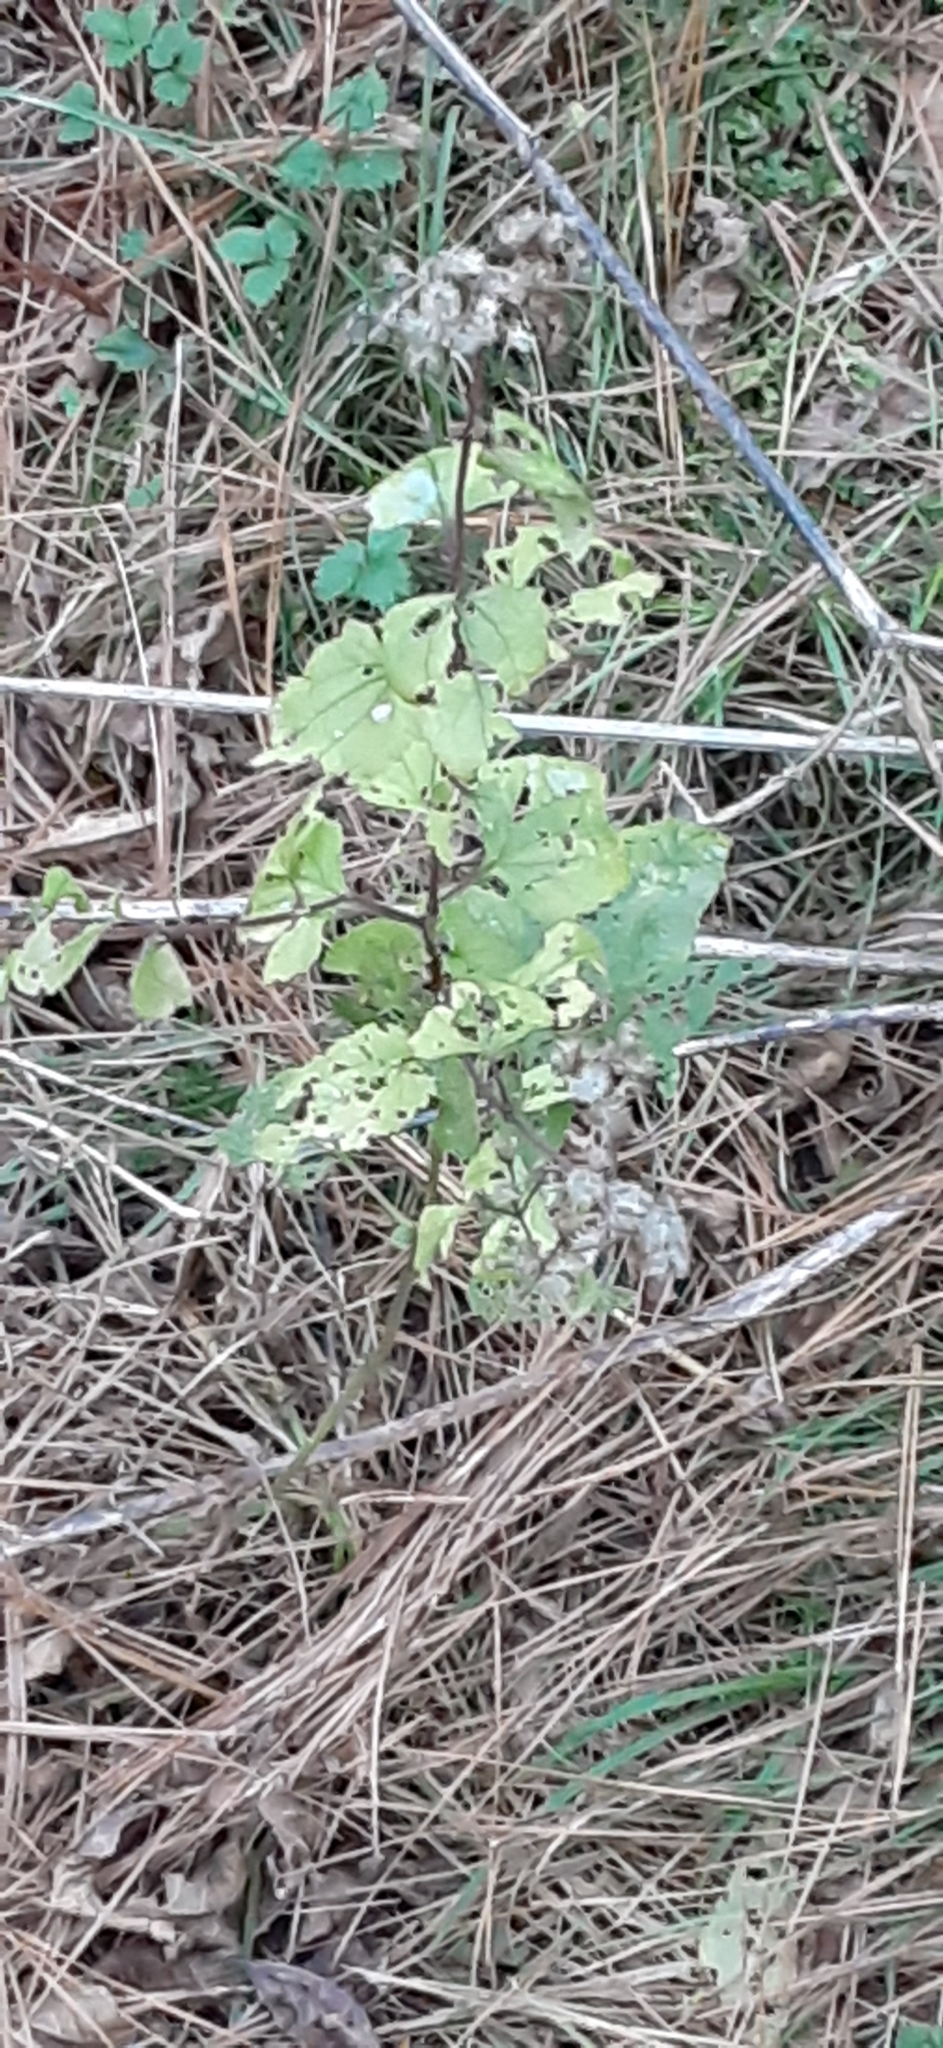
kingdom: Plantae
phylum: Tracheophyta
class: Magnoliopsida
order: Asterales
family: Asteraceae
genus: Conoclinium
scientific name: Conoclinium coelestinum
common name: Blue mistflower
